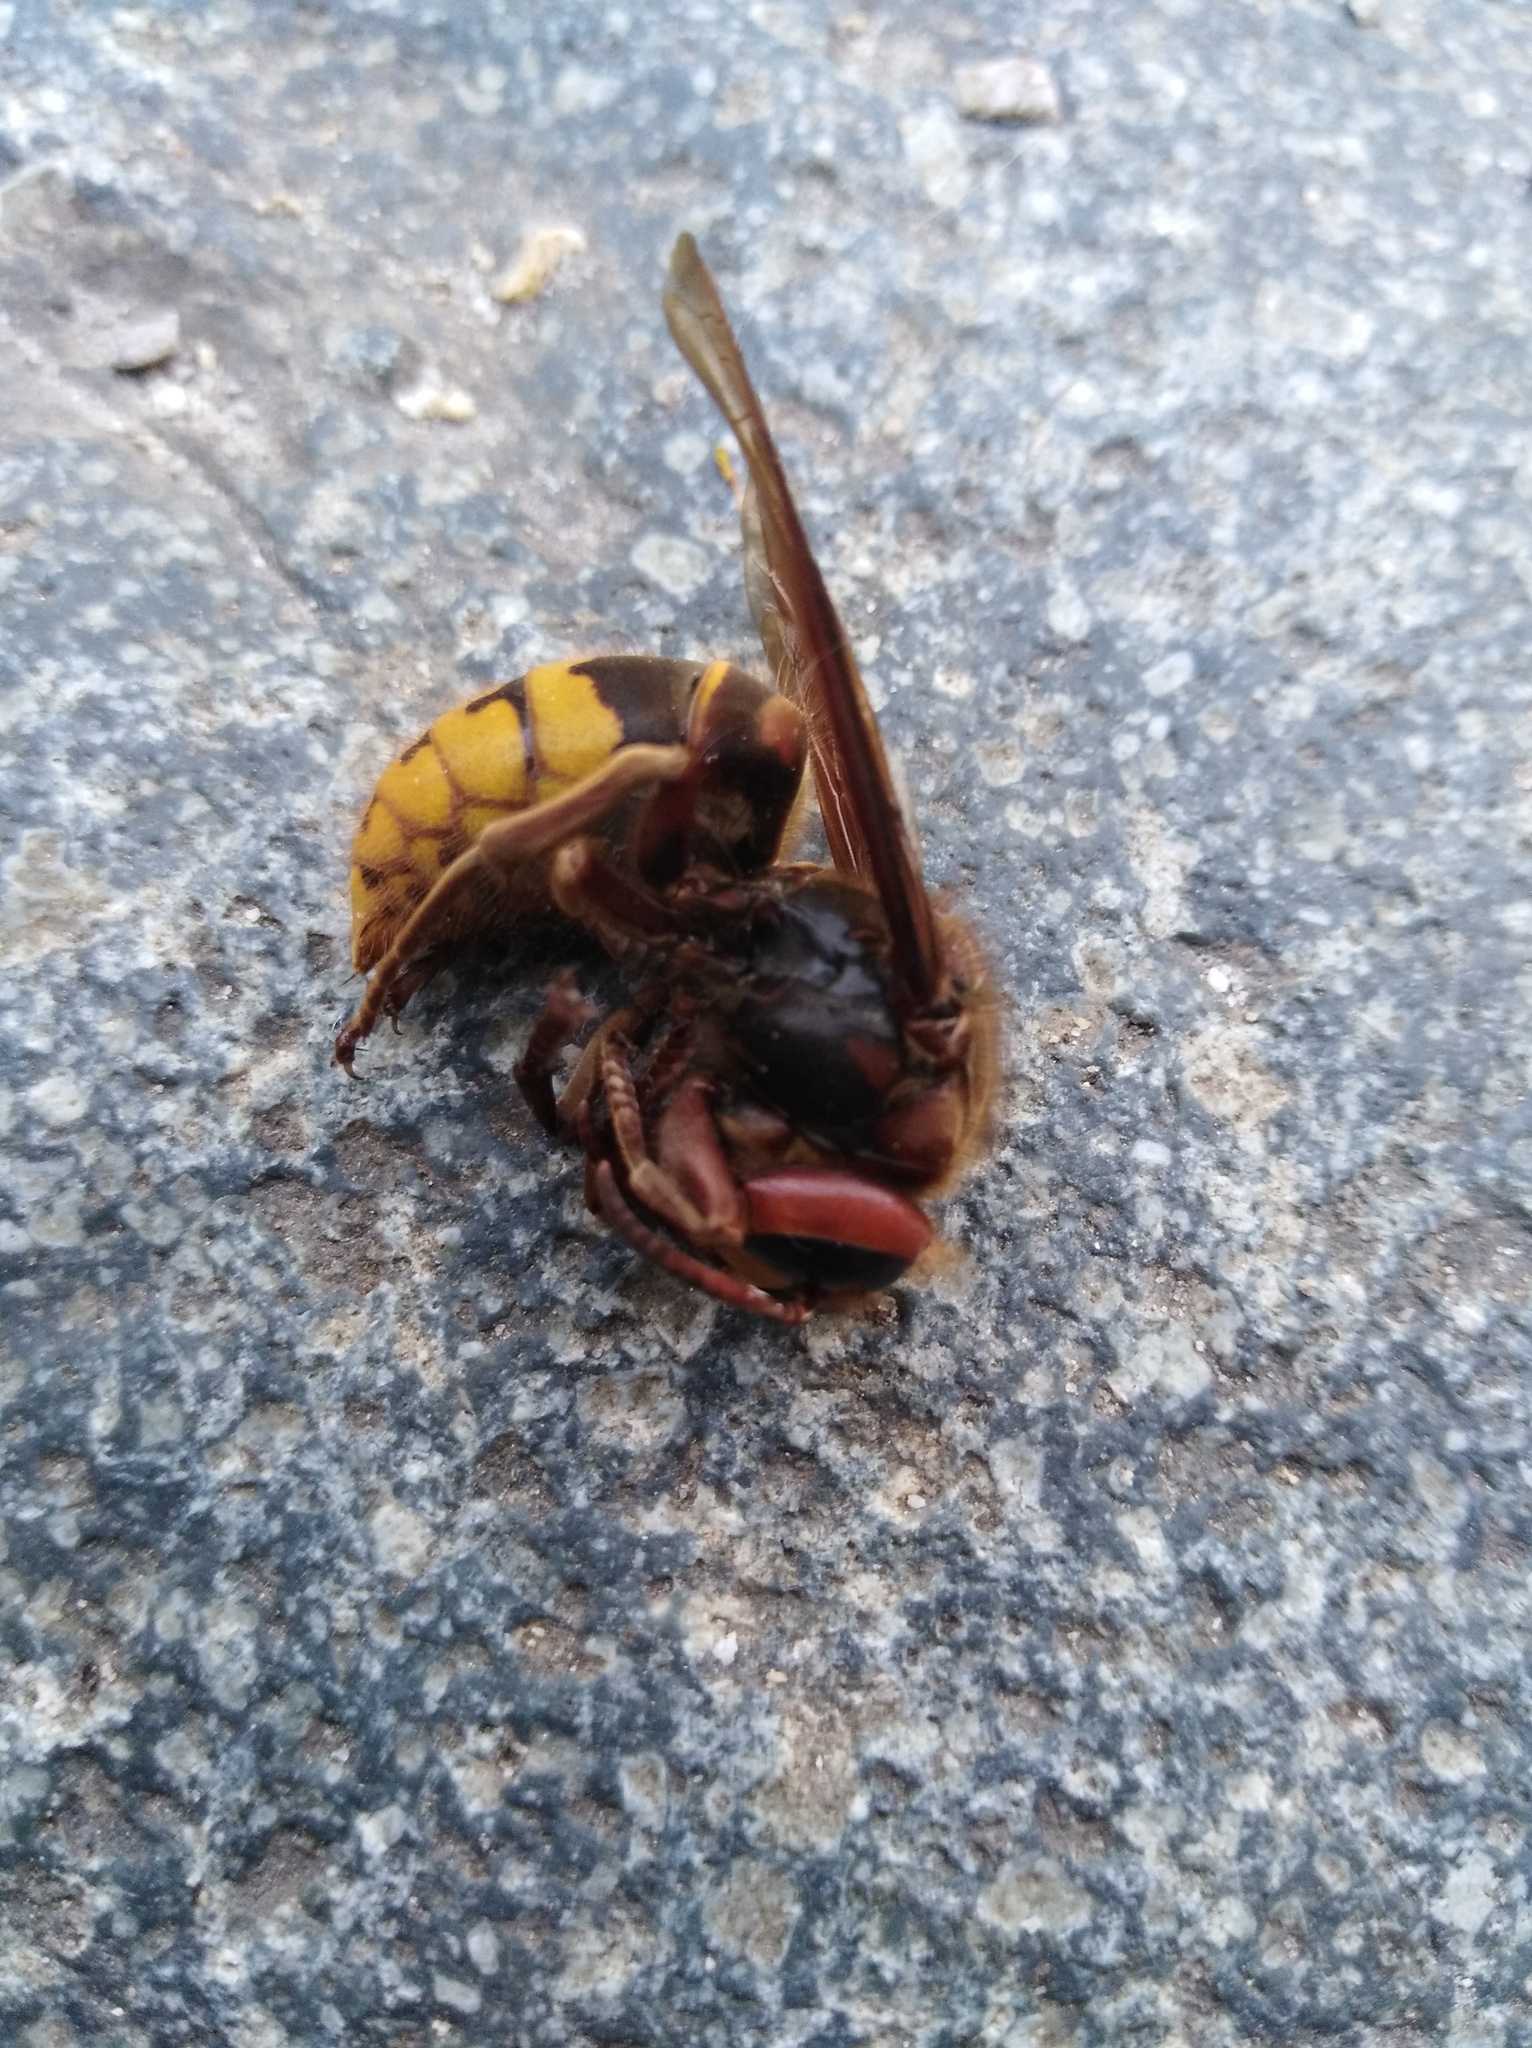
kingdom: Animalia
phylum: Arthropoda
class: Insecta
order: Hymenoptera
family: Vespidae
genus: Vespa
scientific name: Vespa crabro
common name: Hornet
